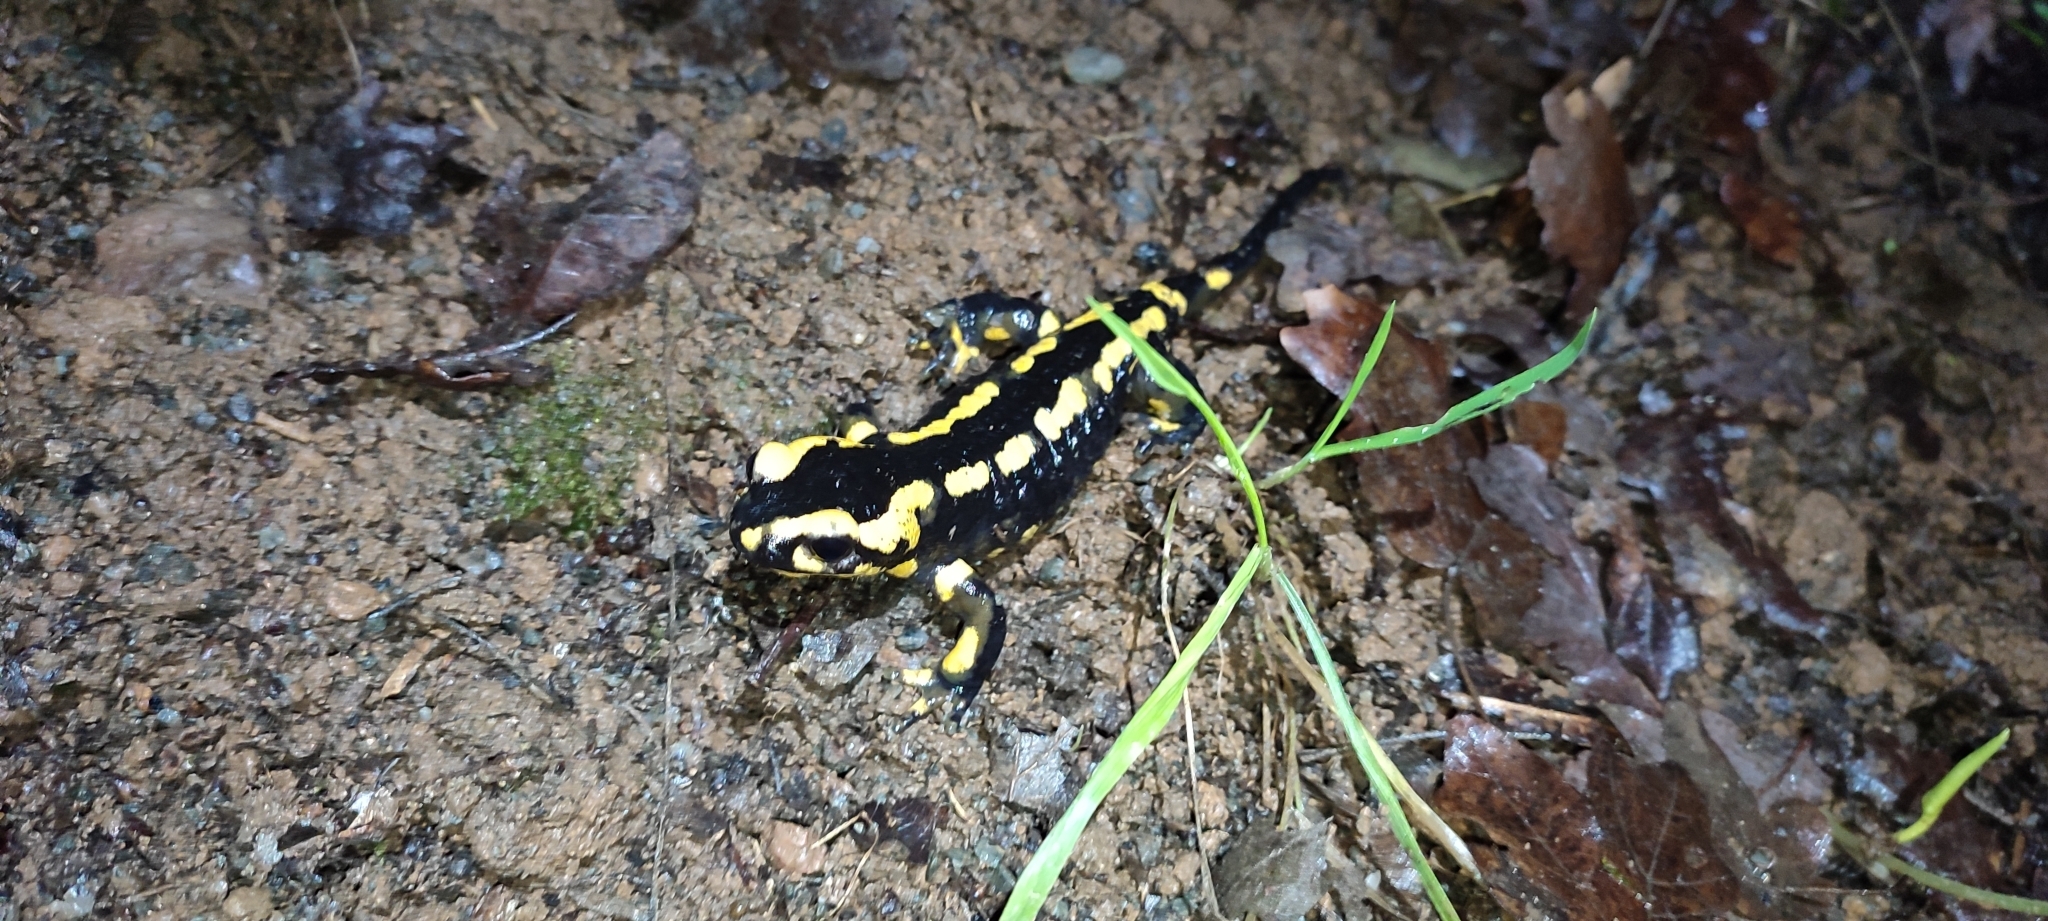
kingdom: Animalia
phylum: Chordata
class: Amphibia
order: Caudata
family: Salamandridae
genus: Salamandra
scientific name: Salamandra salamandra
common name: Fire salamander
